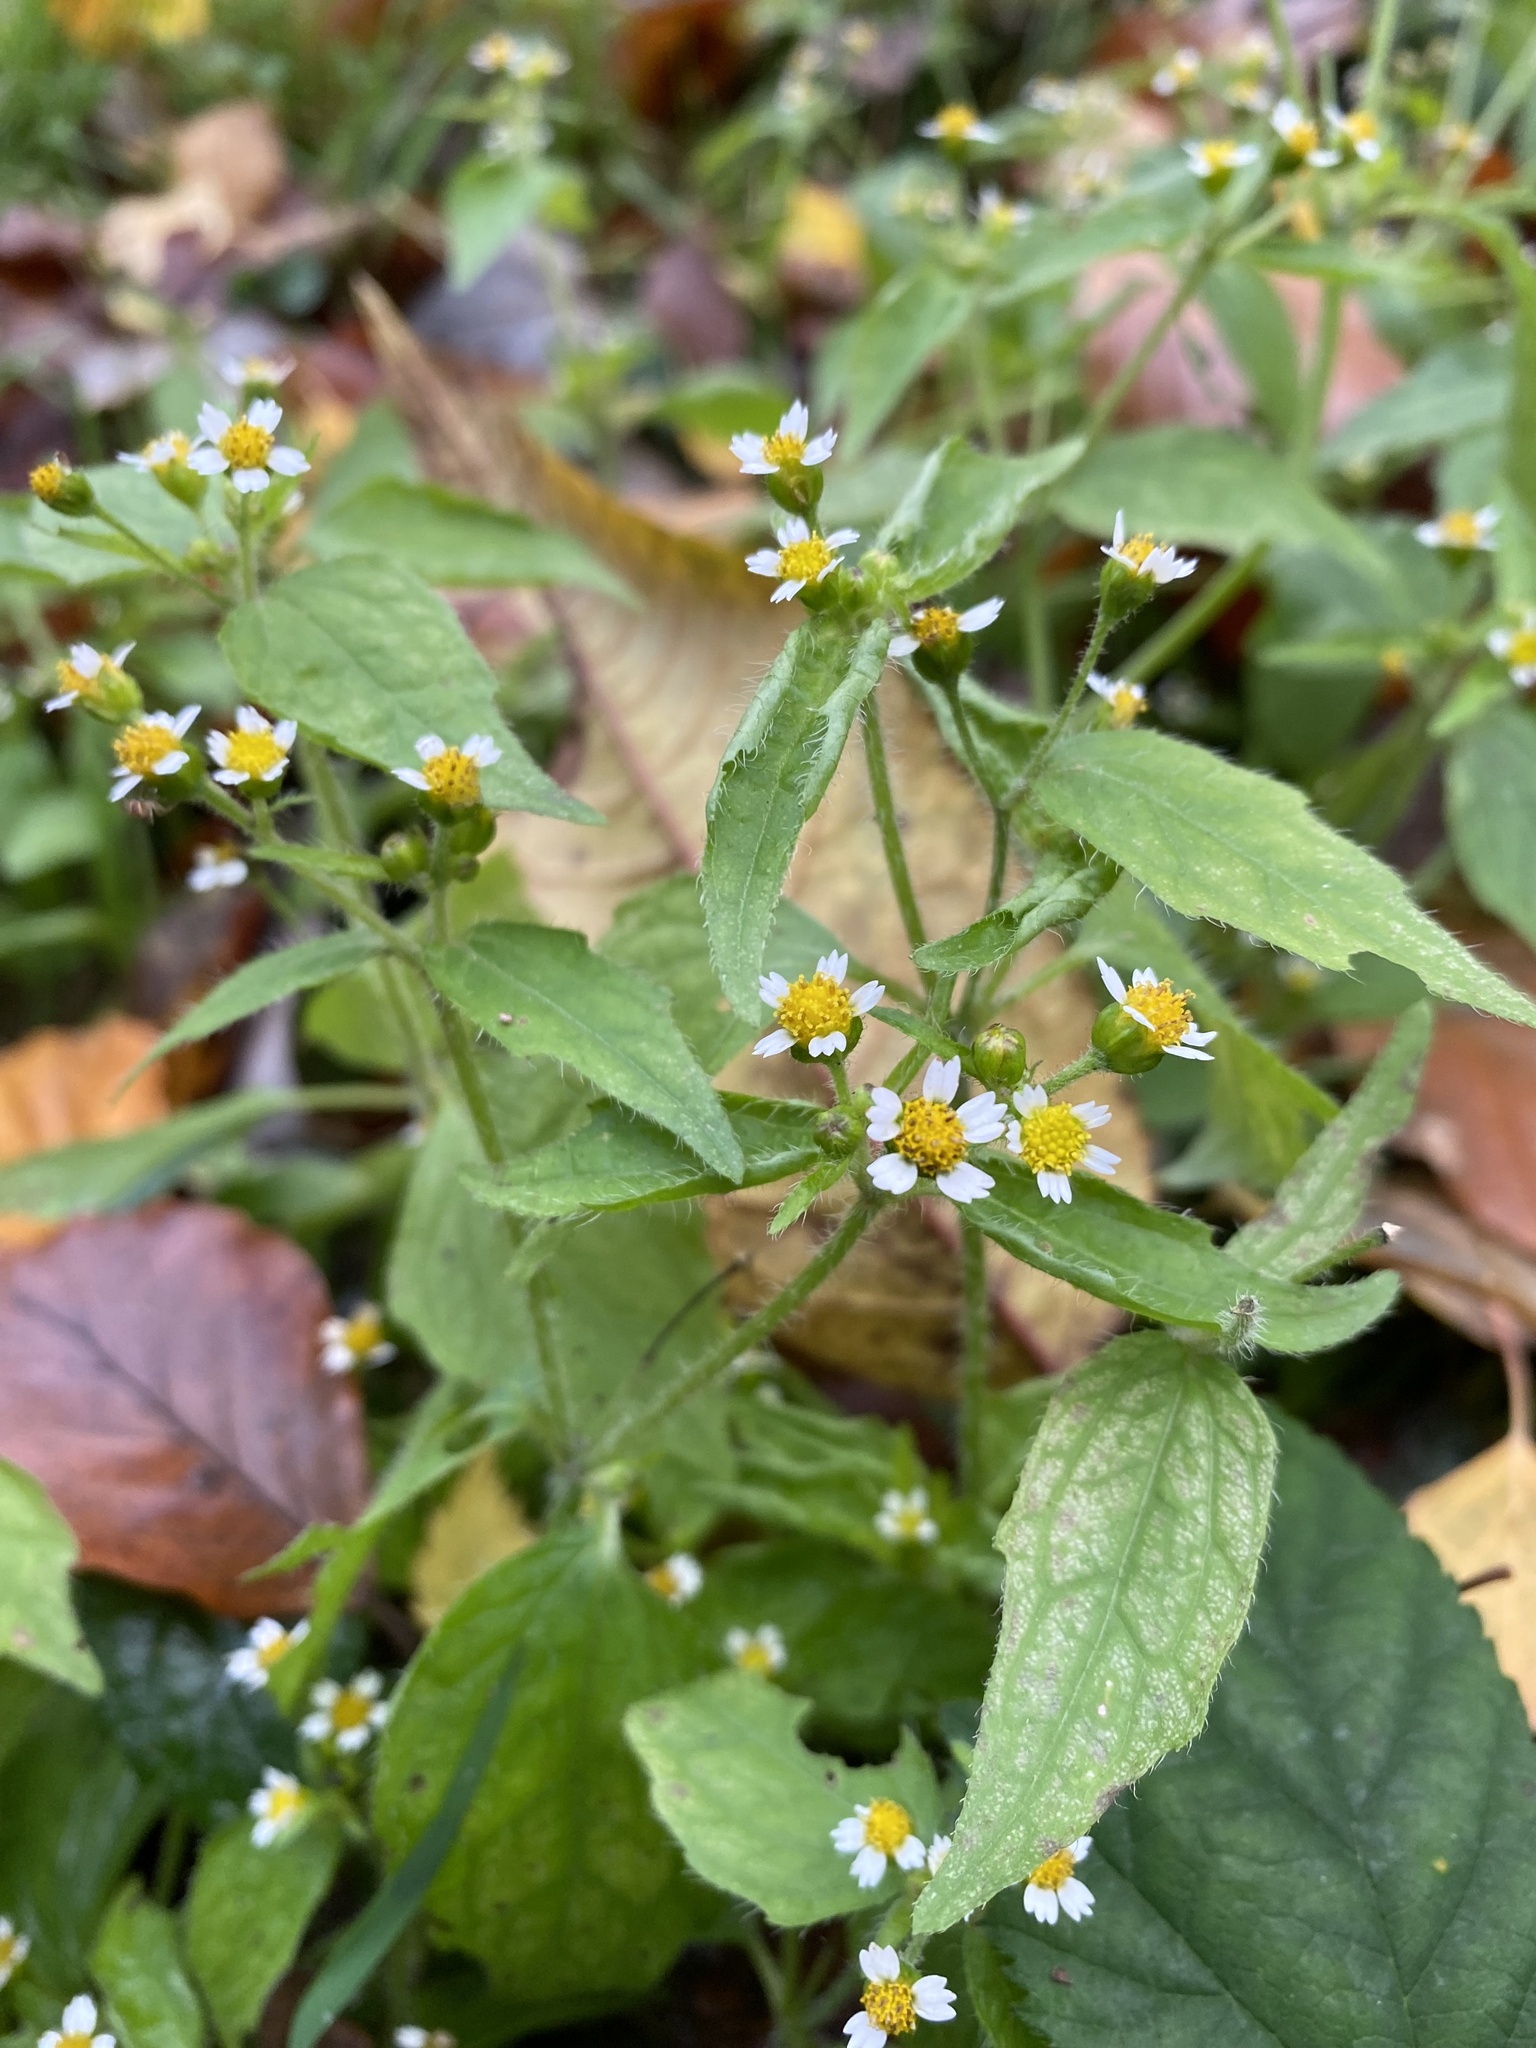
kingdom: Plantae
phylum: Tracheophyta
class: Magnoliopsida
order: Asterales
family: Asteraceae
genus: Galinsoga
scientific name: Galinsoga quadriradiata
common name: Shaggy soldier
